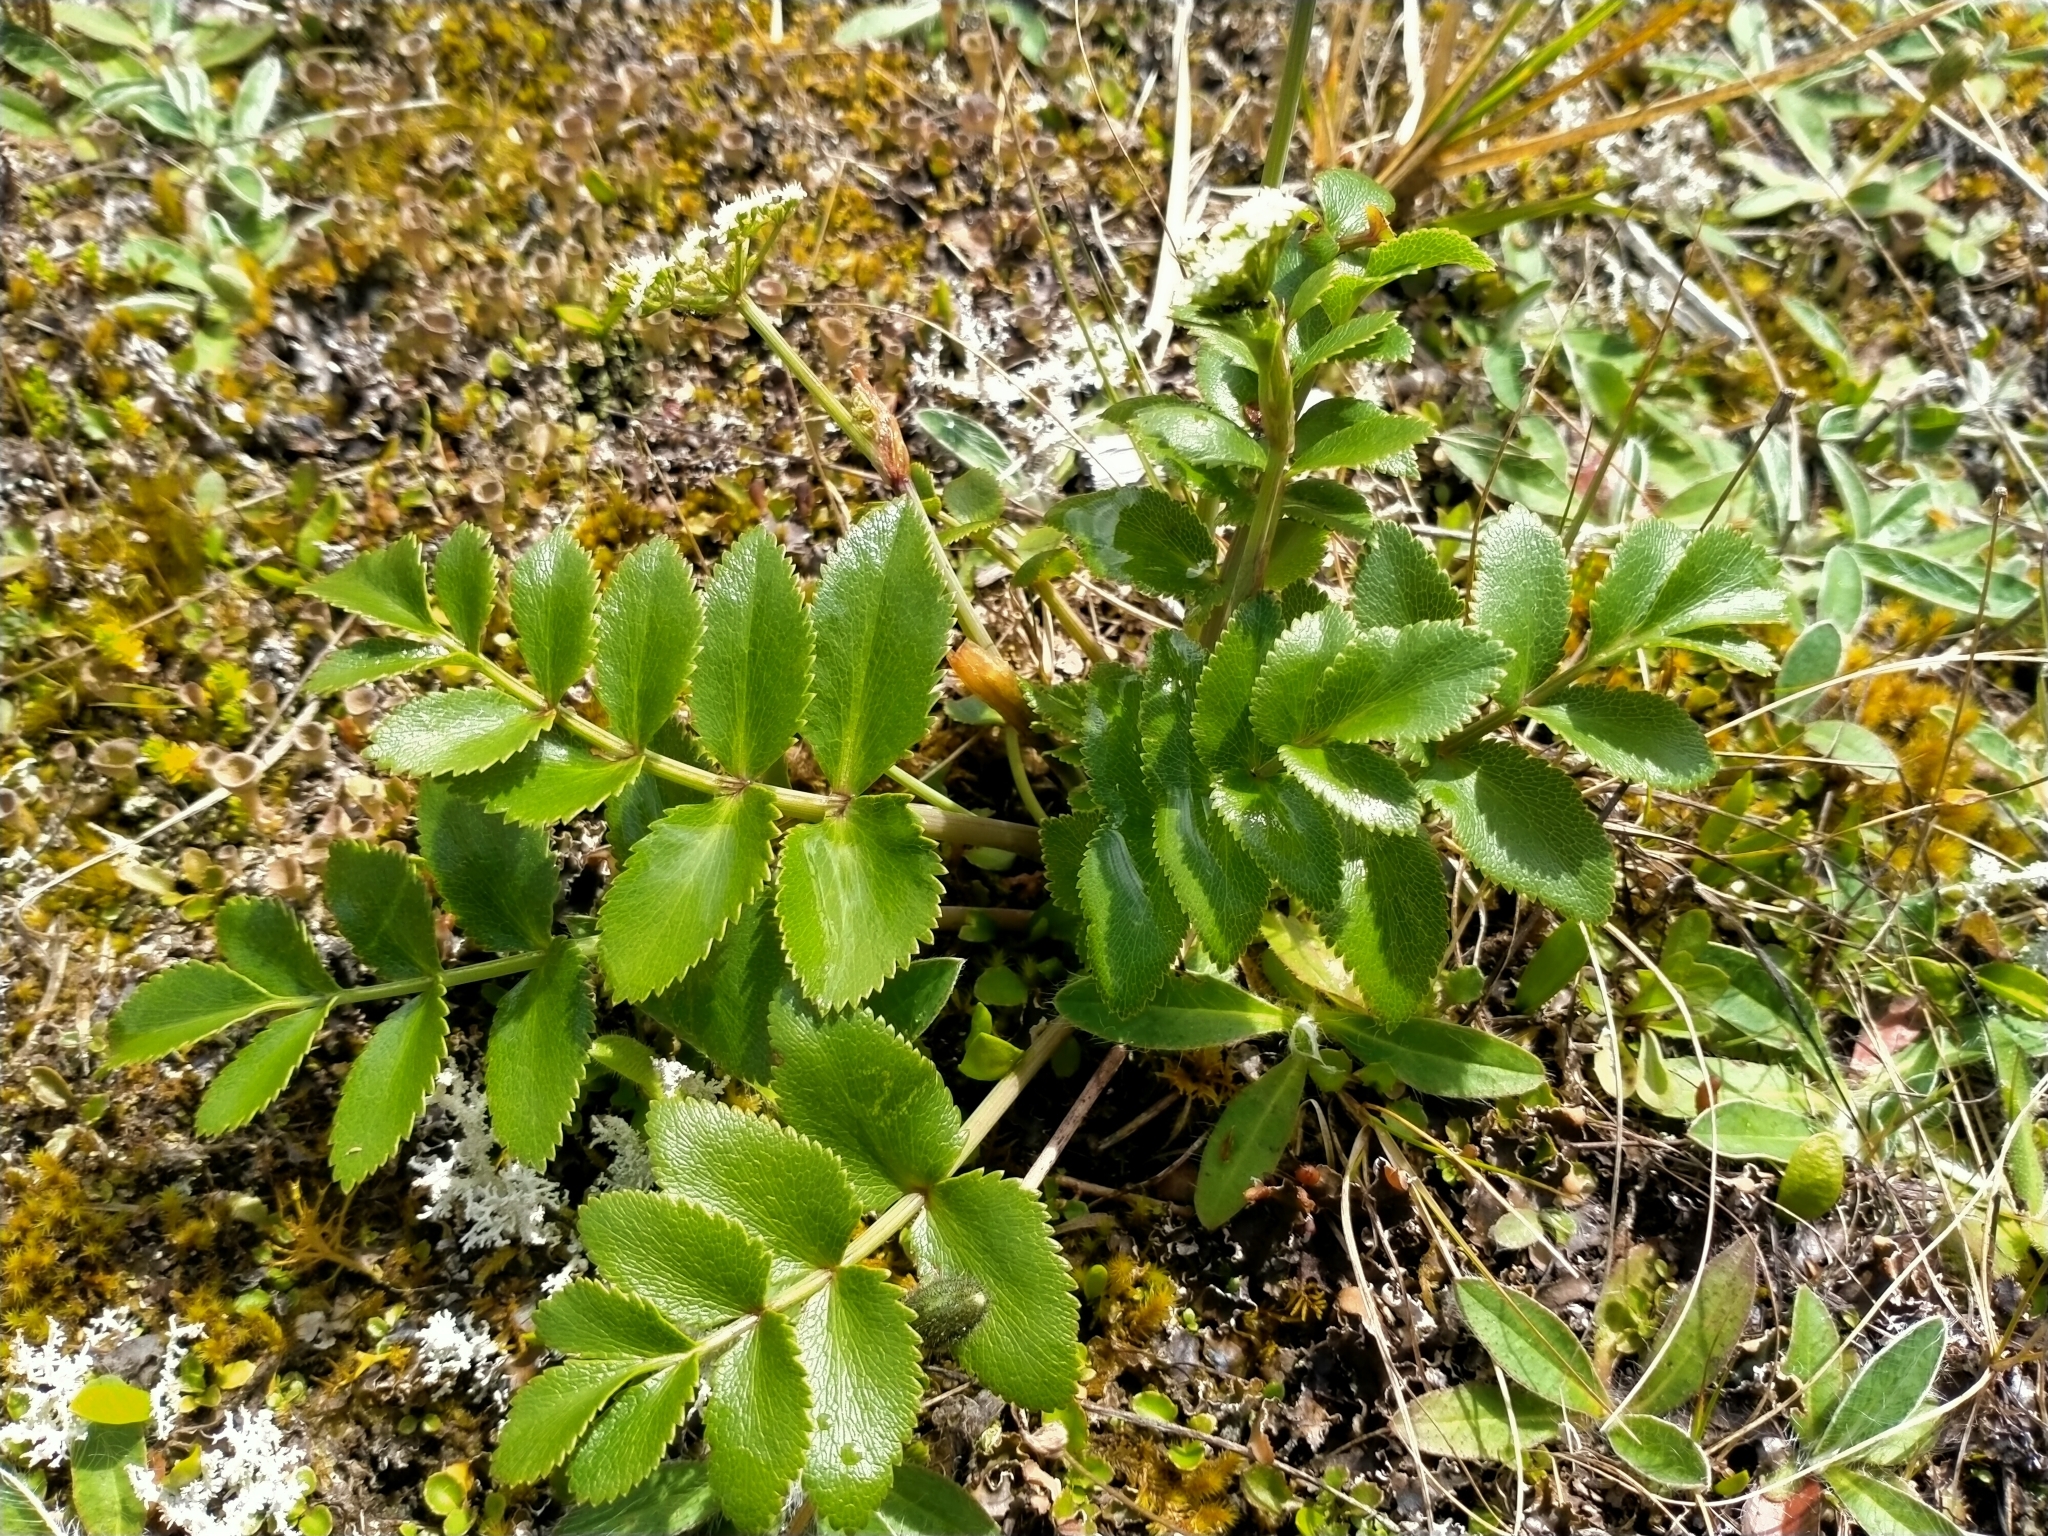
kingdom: Plantae
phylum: Tracheophyta
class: Magnoliopsida
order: Apiales
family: Apiaceae
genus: Gingidia
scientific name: Gingidia montana
